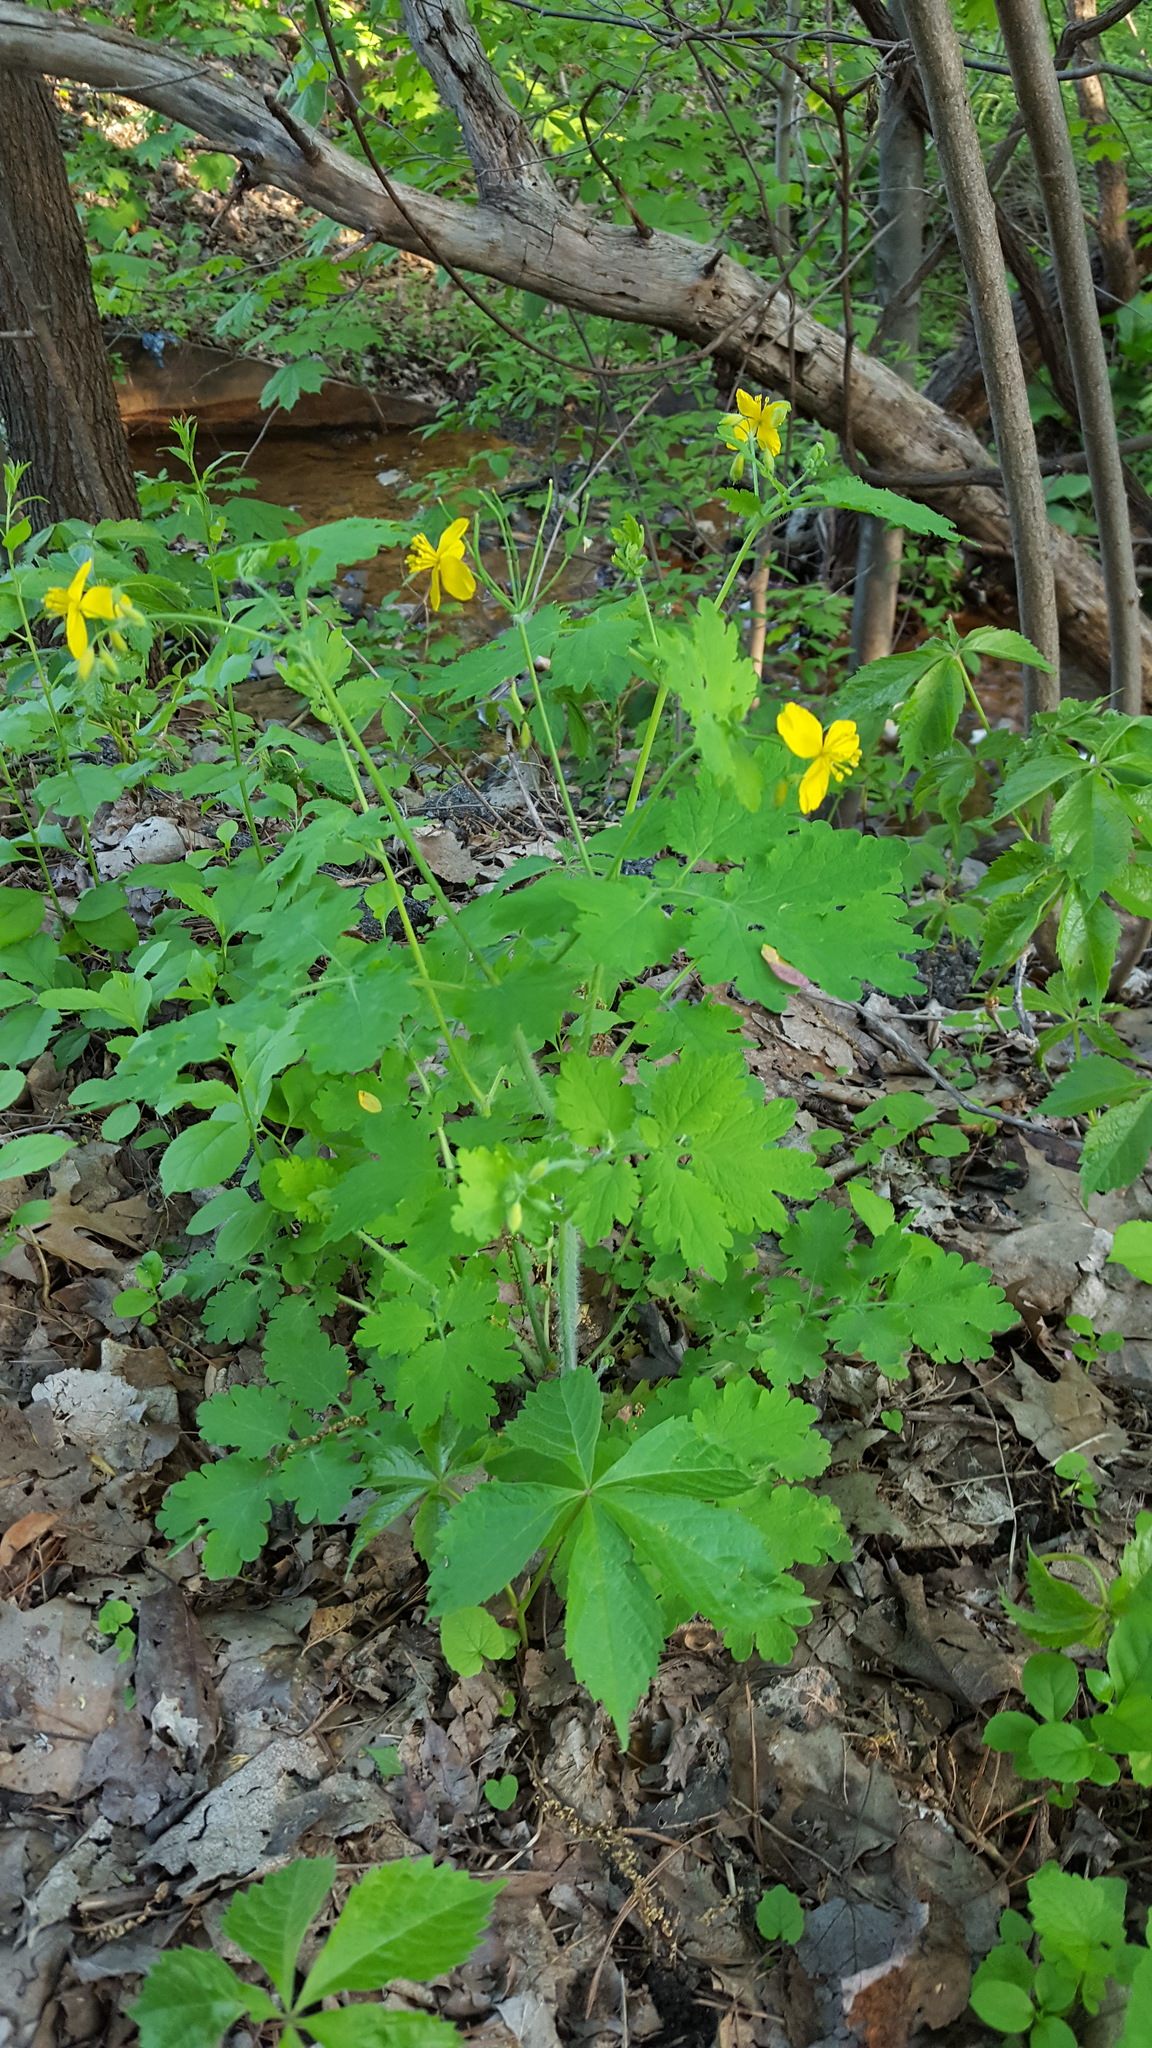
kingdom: Plantae
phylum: Tracheophyta
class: Magnoliopsida
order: Ranunculales
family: Papaveraceae
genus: Chelidonium
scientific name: Chelidonium majus
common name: Greater celandine
